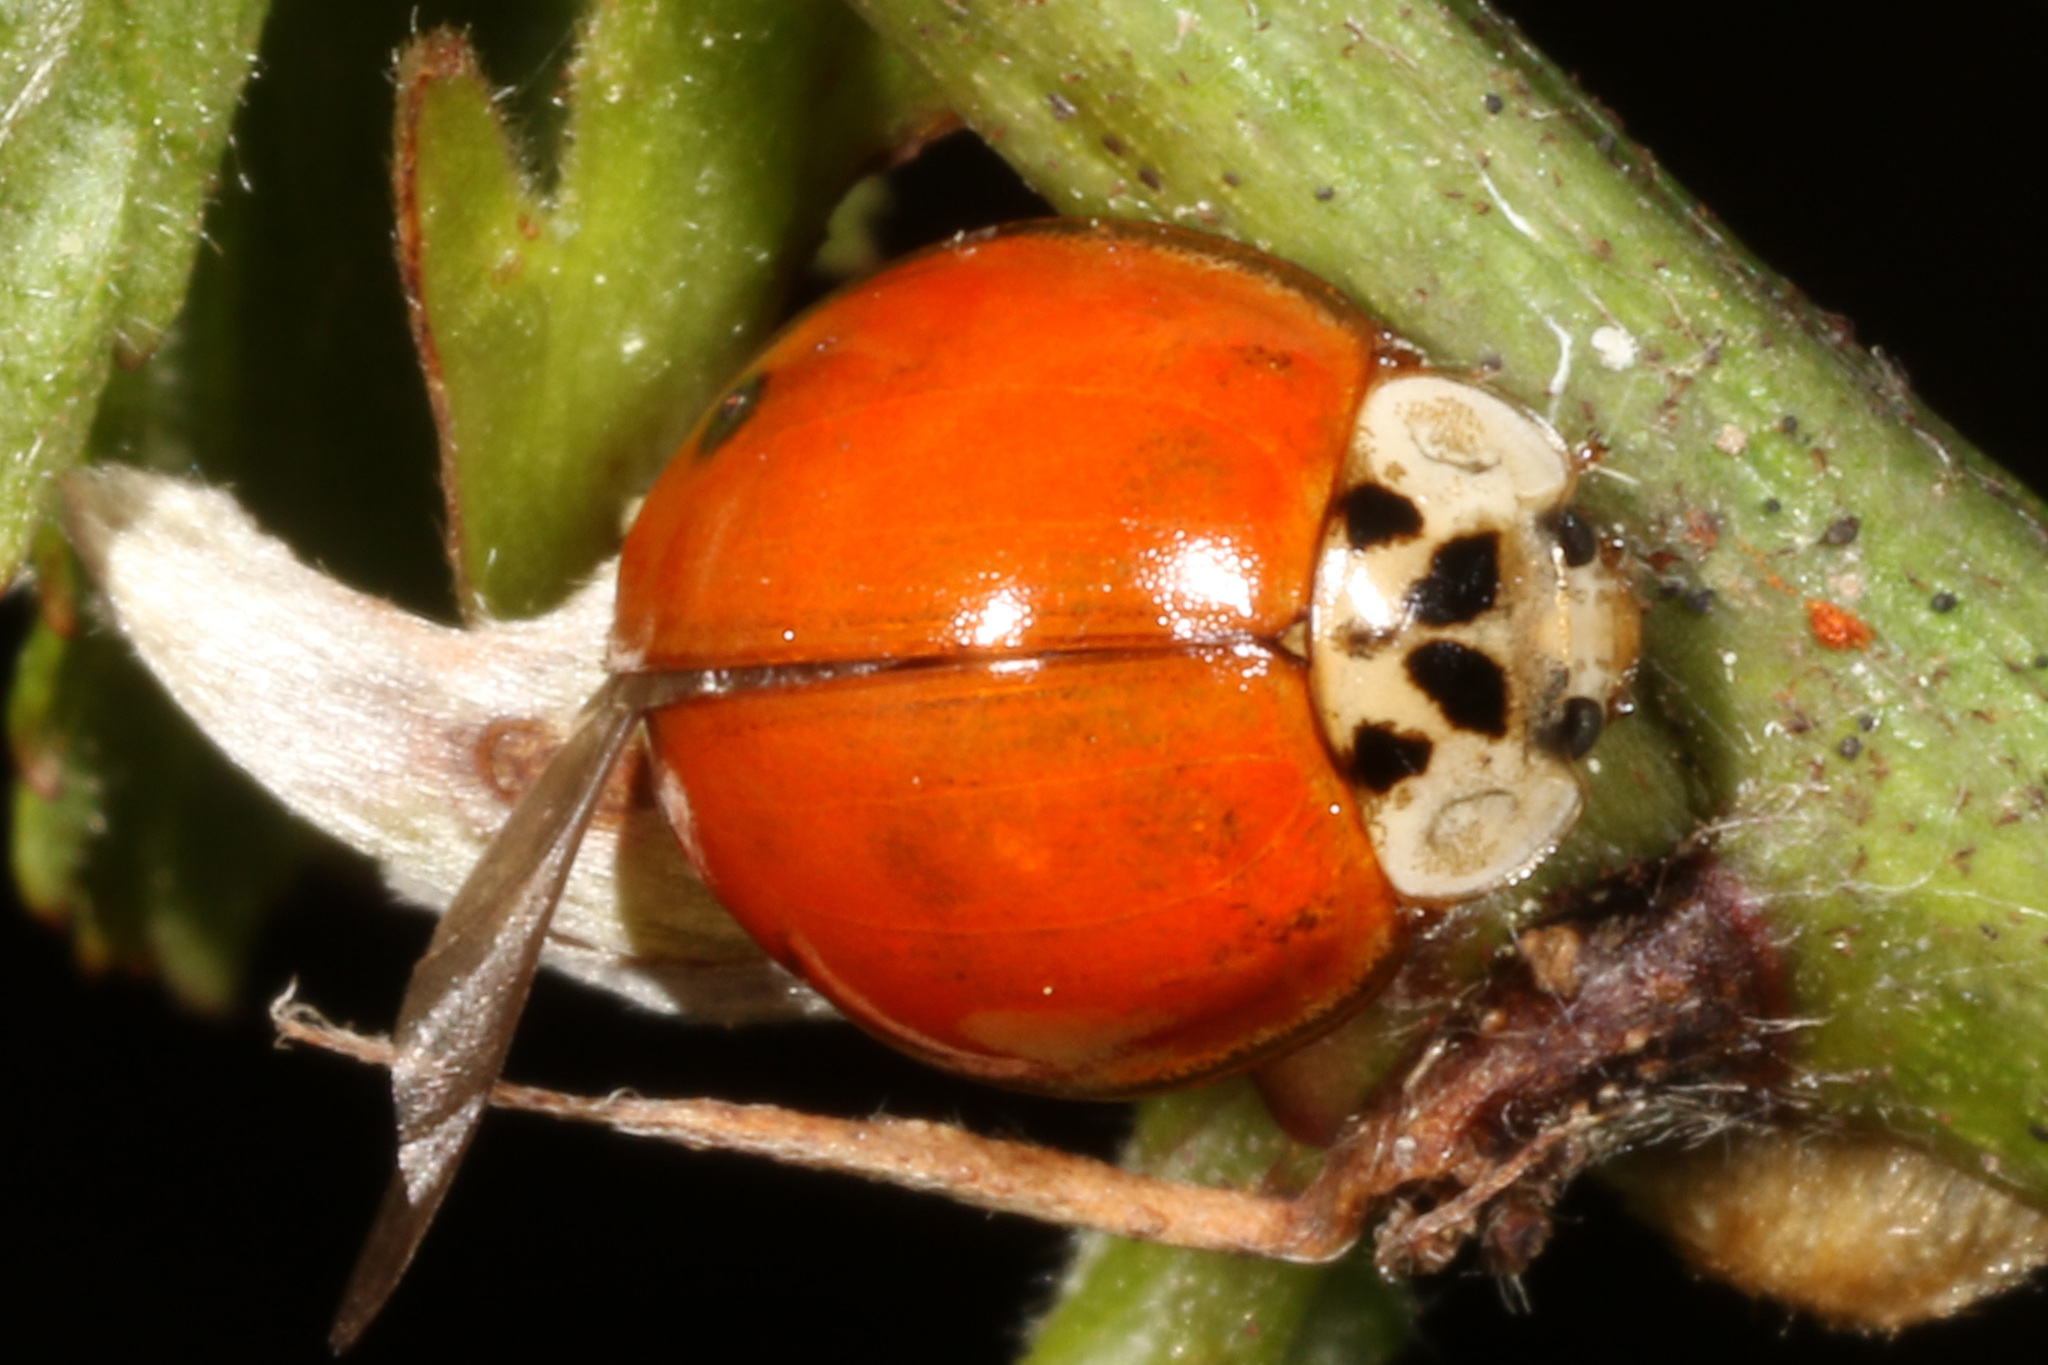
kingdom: Animalia
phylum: Arthropoda
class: Insecta
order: Coleoptera
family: Coccinellidae
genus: Harmonia
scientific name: Harmonia axyridis
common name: Harlequin ladybird
